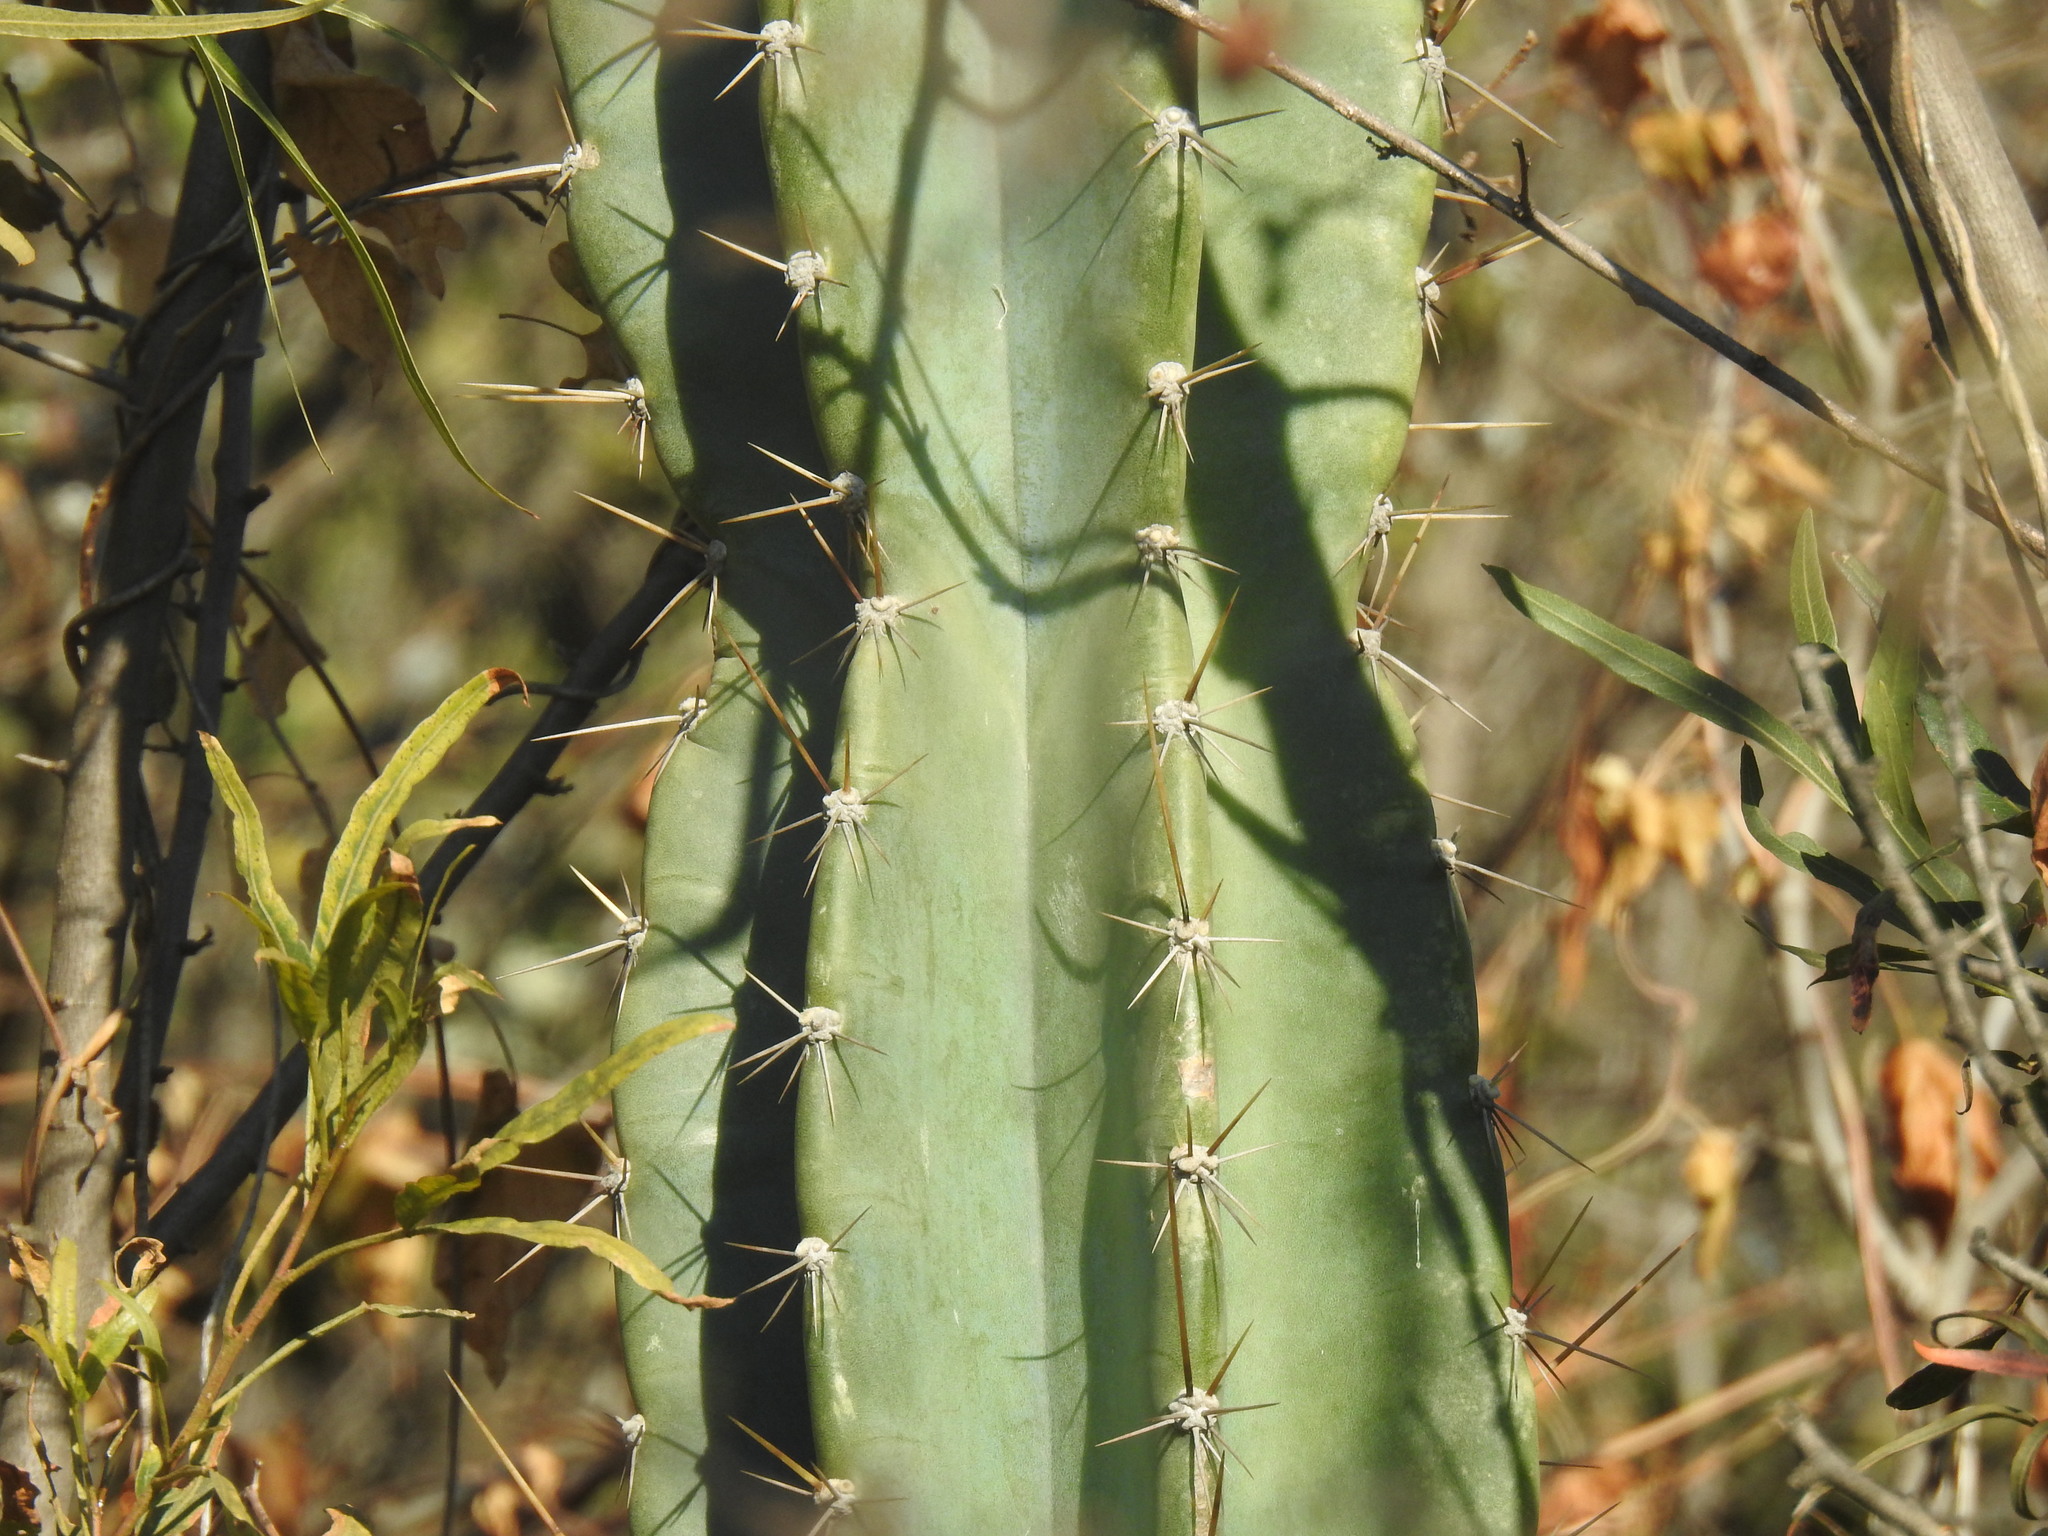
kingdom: Plantae
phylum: Tracheophyta
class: Magnoliopsida
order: Caryophyllales
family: Cactaceae
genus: Cereus
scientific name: Cereus jamacaru
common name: Queen-of-the-night
